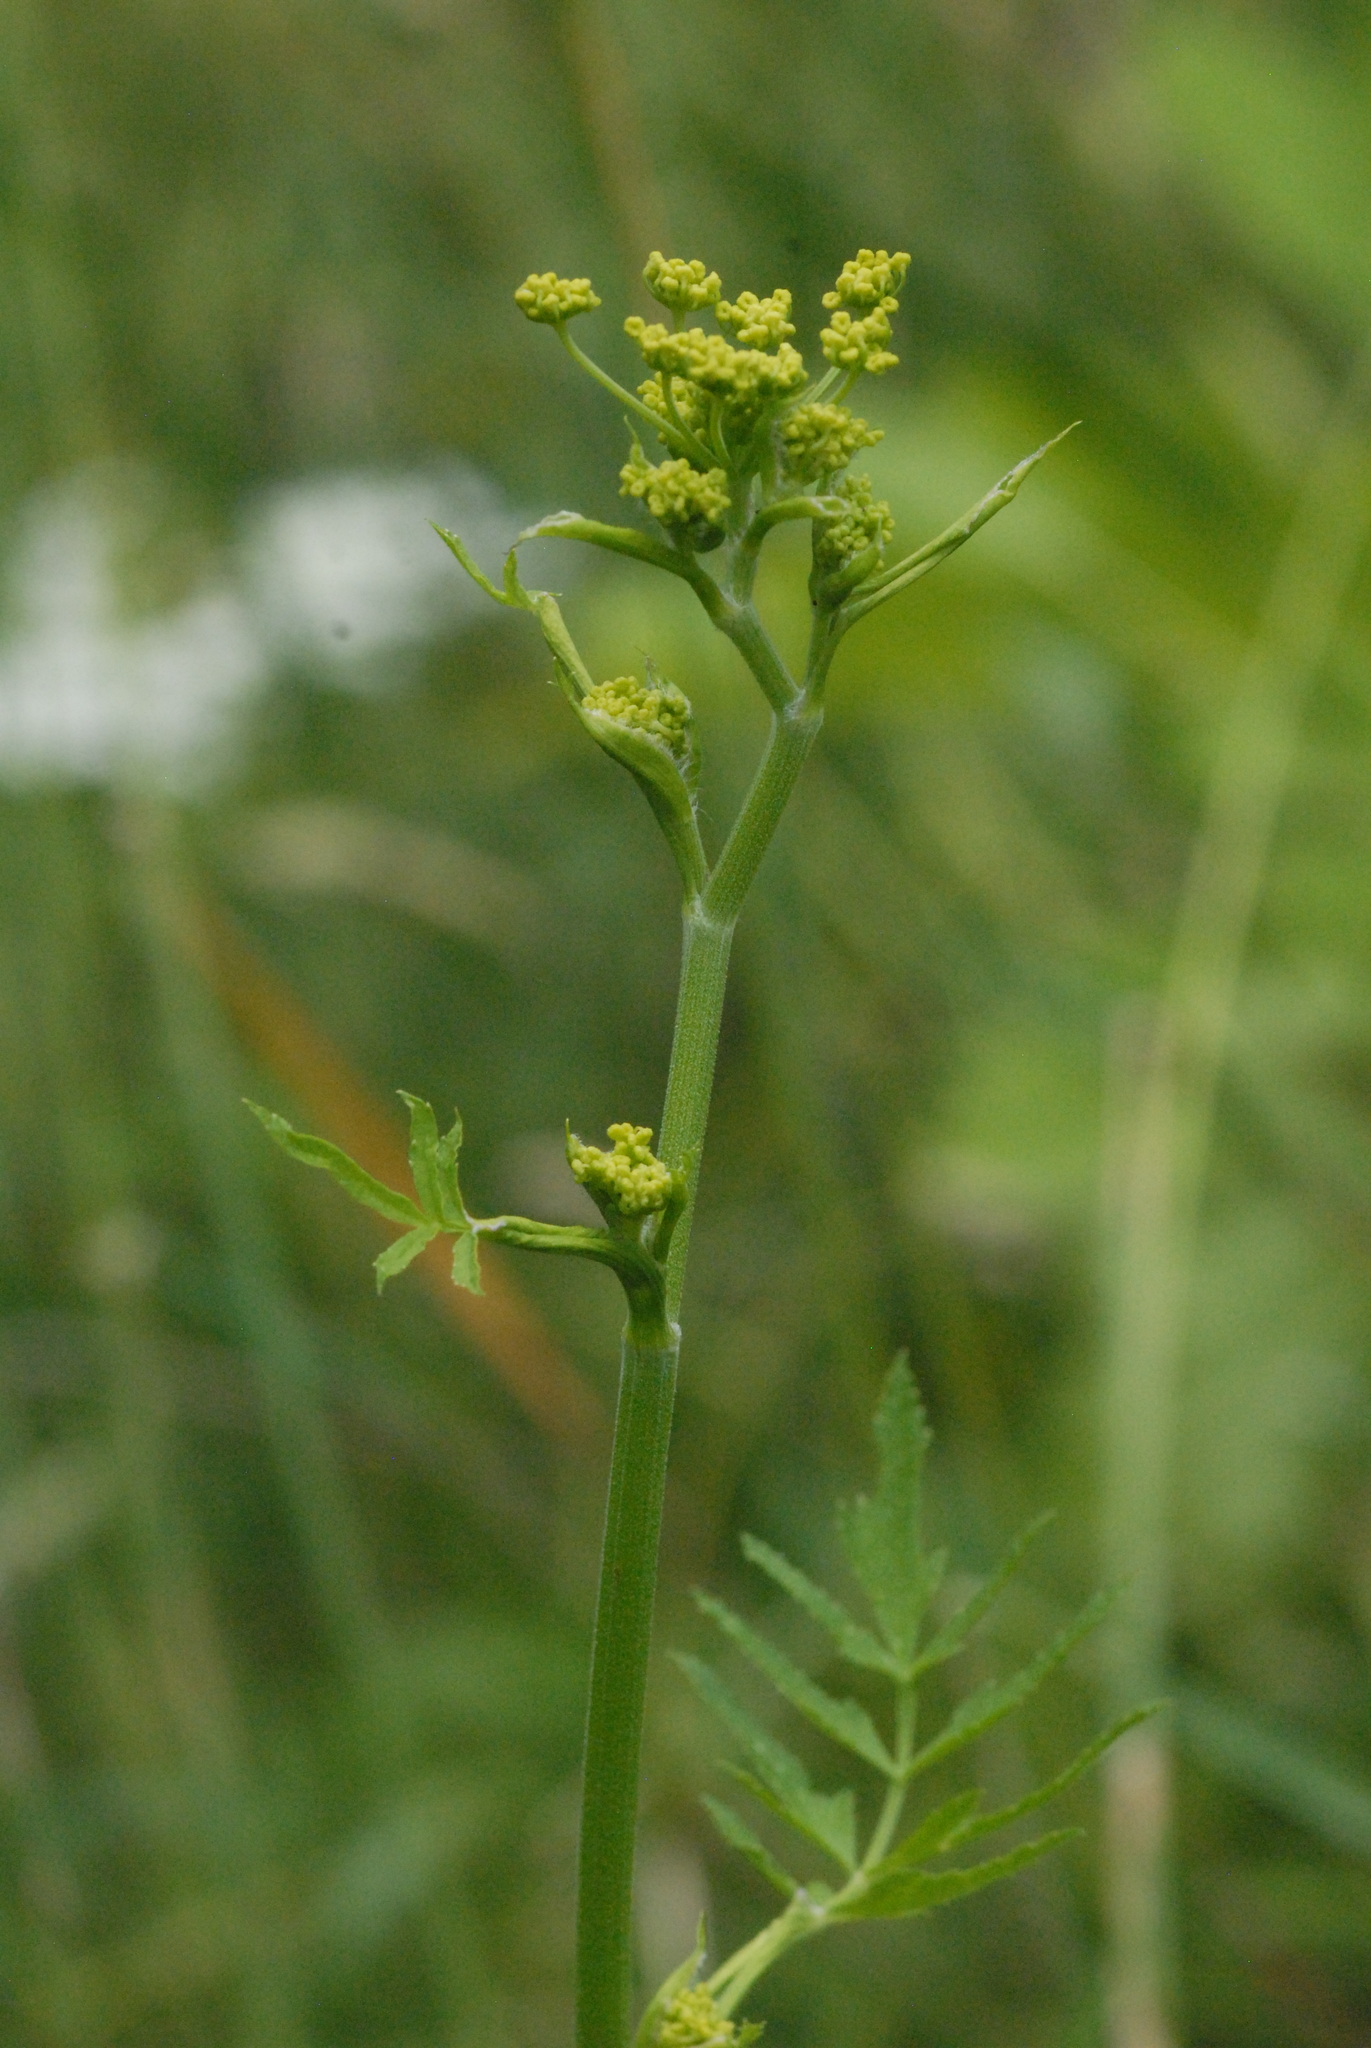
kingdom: Plantae
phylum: Tracheophyta
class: Magnoliopsida
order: Apiales
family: Apiaceae
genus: Pastinaca
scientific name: Pastinaca sativa
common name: Wild parsnip
